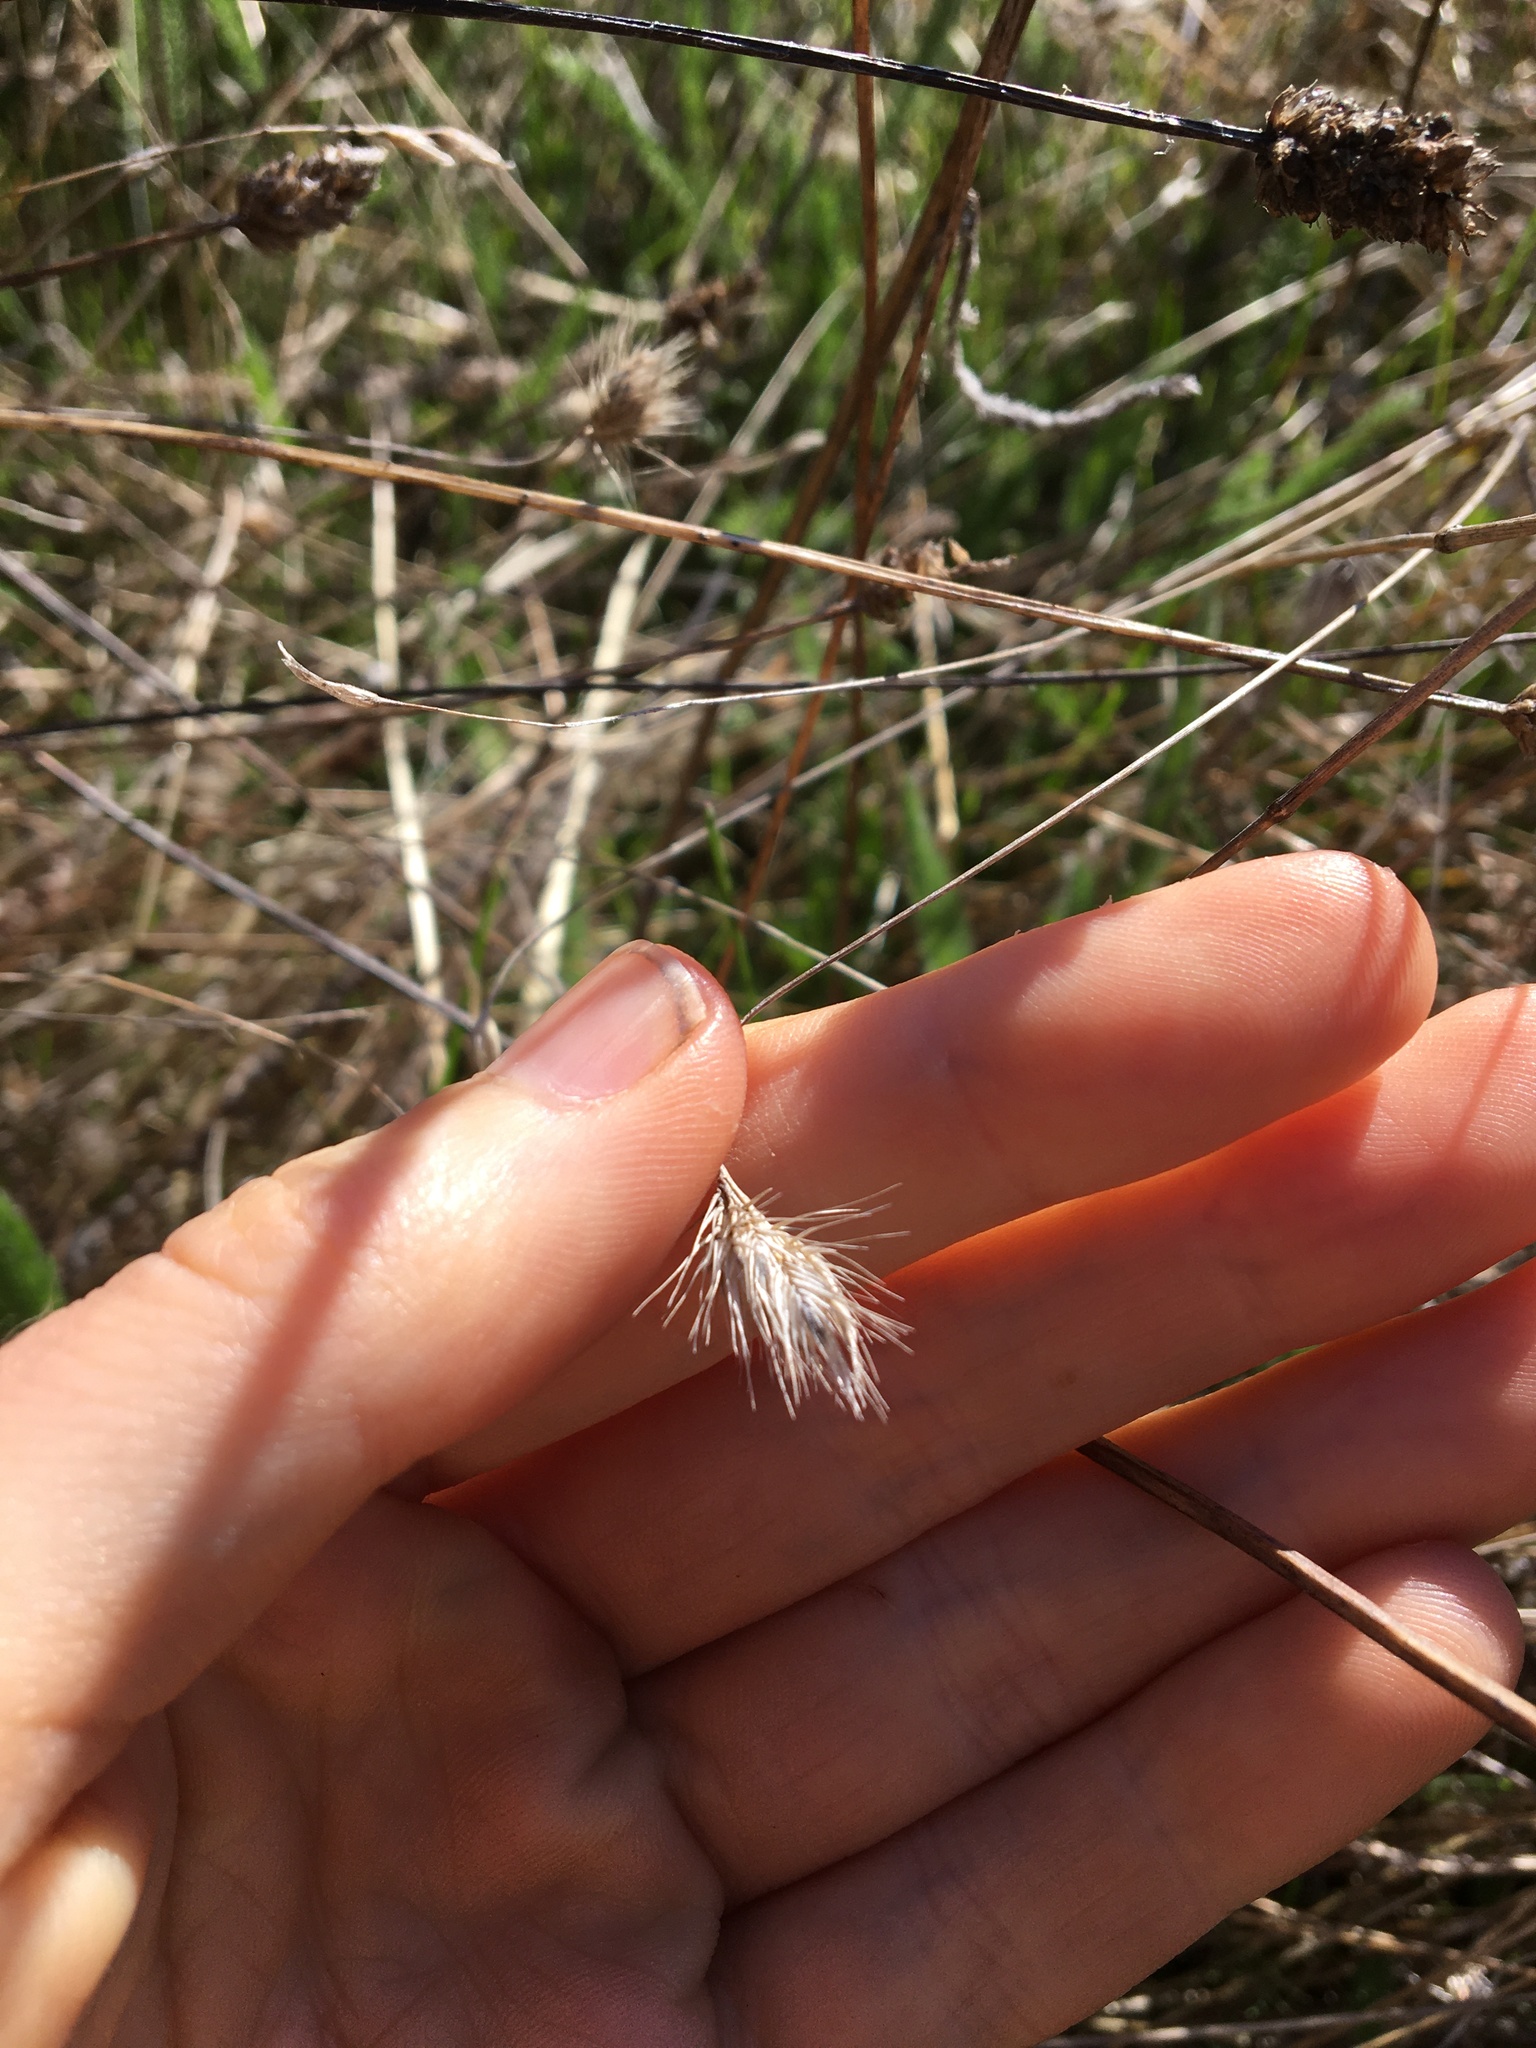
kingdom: Plantae
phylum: Tracheophyta
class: Liliopsida
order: Poales
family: Poaceae
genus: Cynosurus
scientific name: Cynosurus echinatus
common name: Rough dog's-tail
